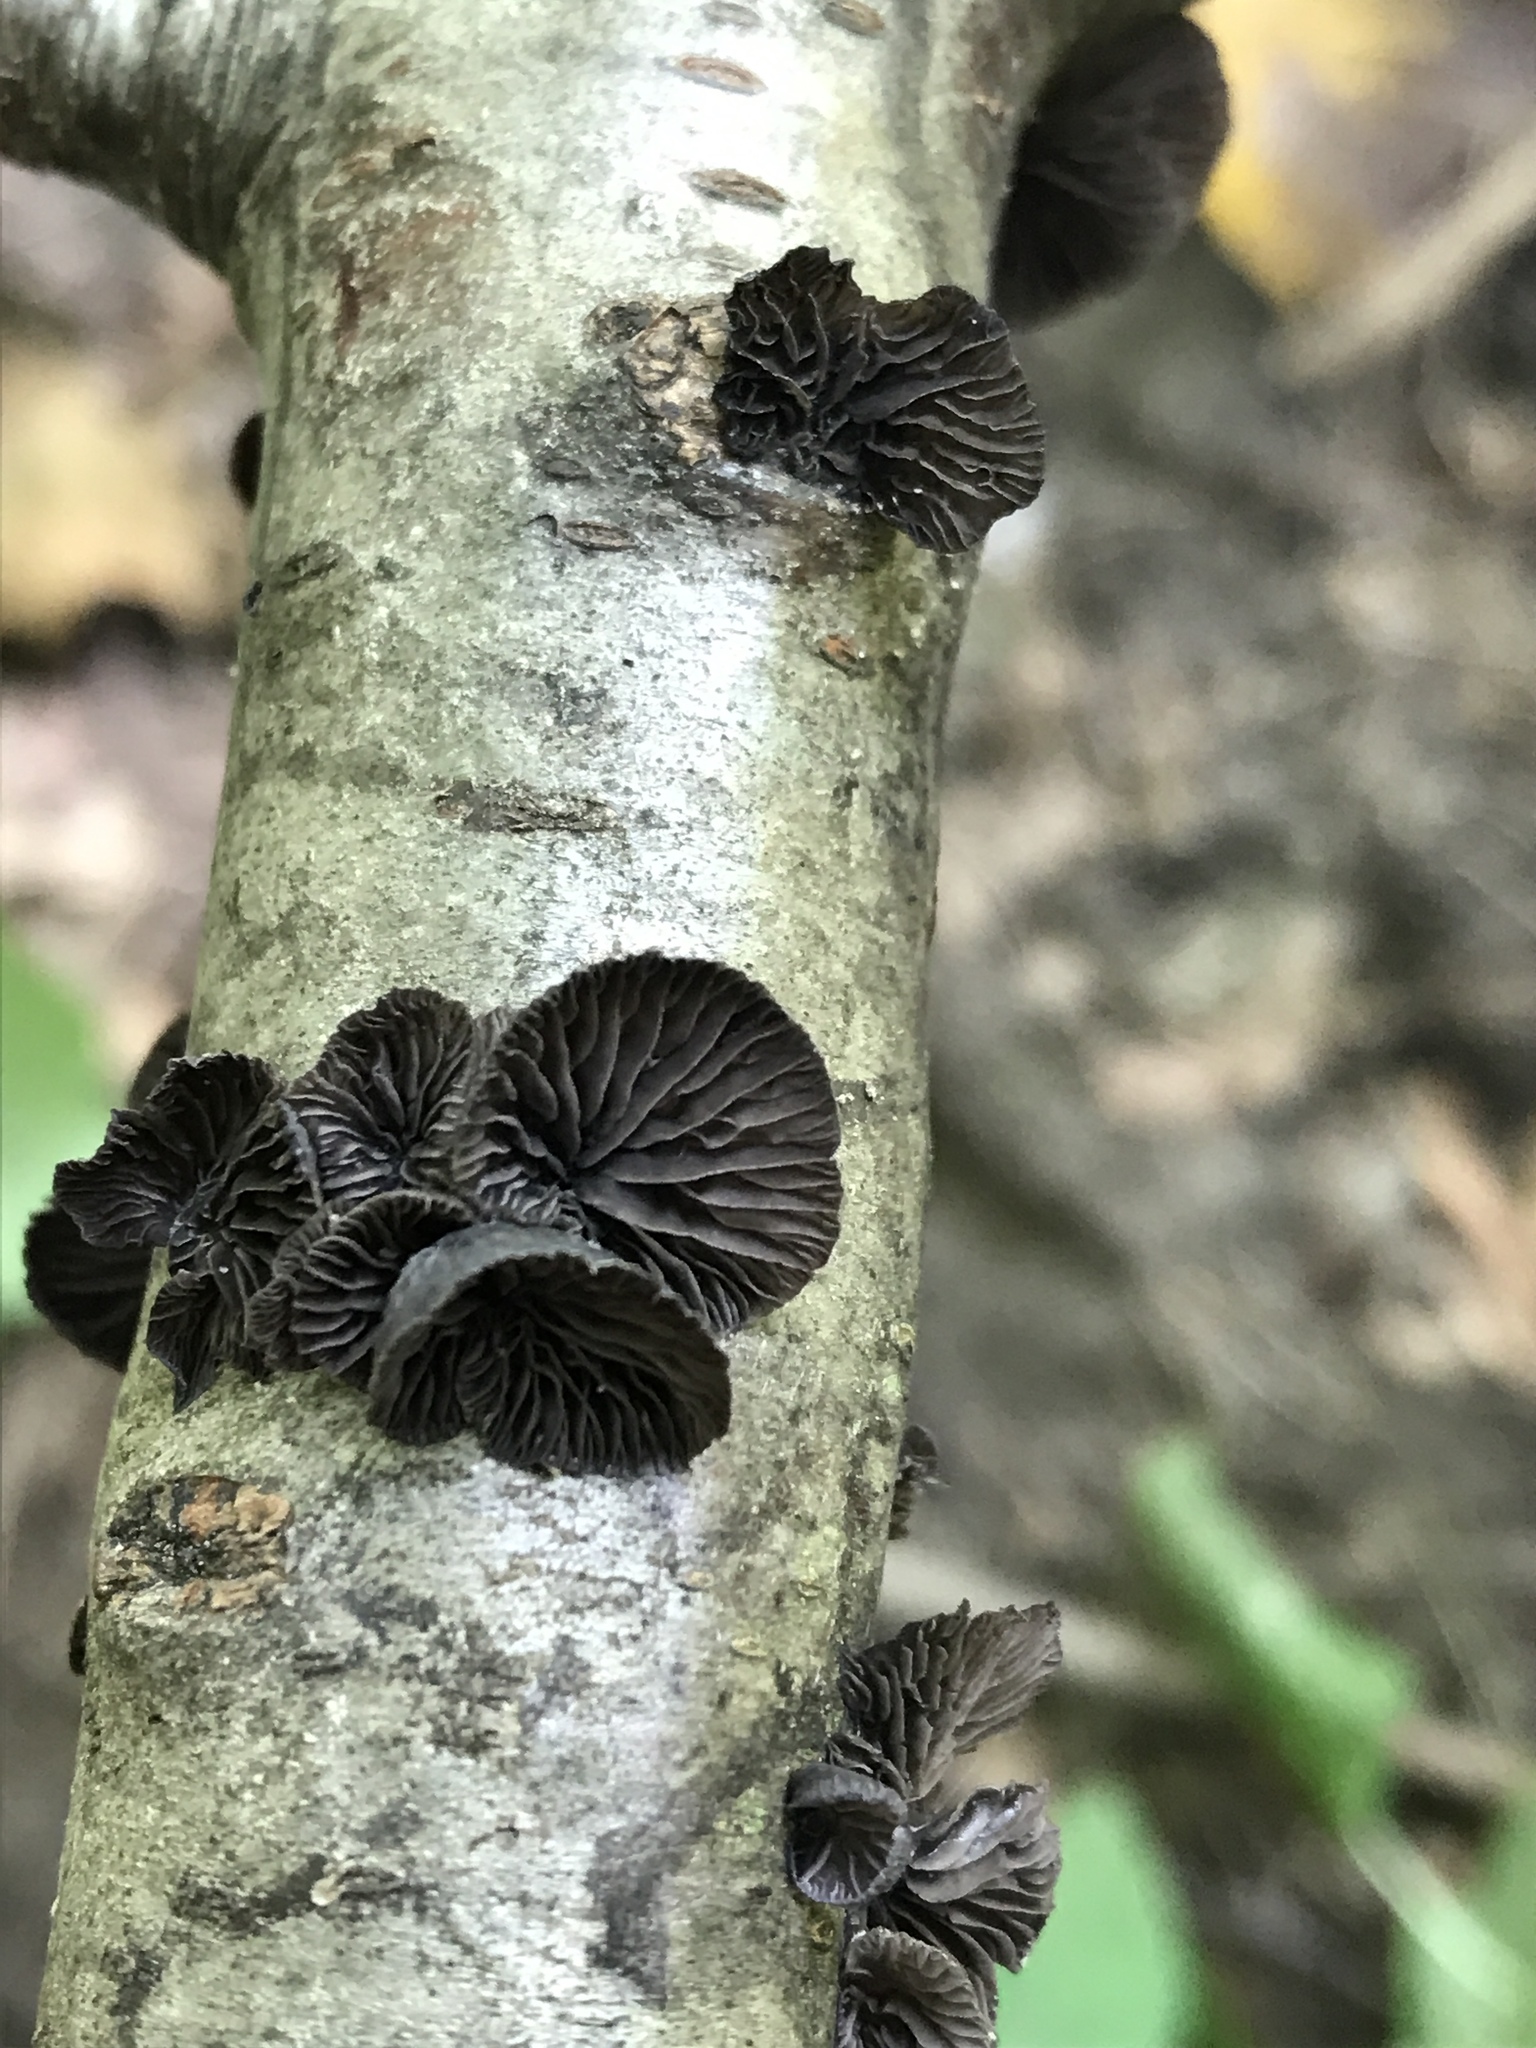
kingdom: Fungi
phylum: Basidiomycota
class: Agaricomycetes
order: Agaricales
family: Pleurotaceae
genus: Resupinatus
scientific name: Resupinatus alboniger
